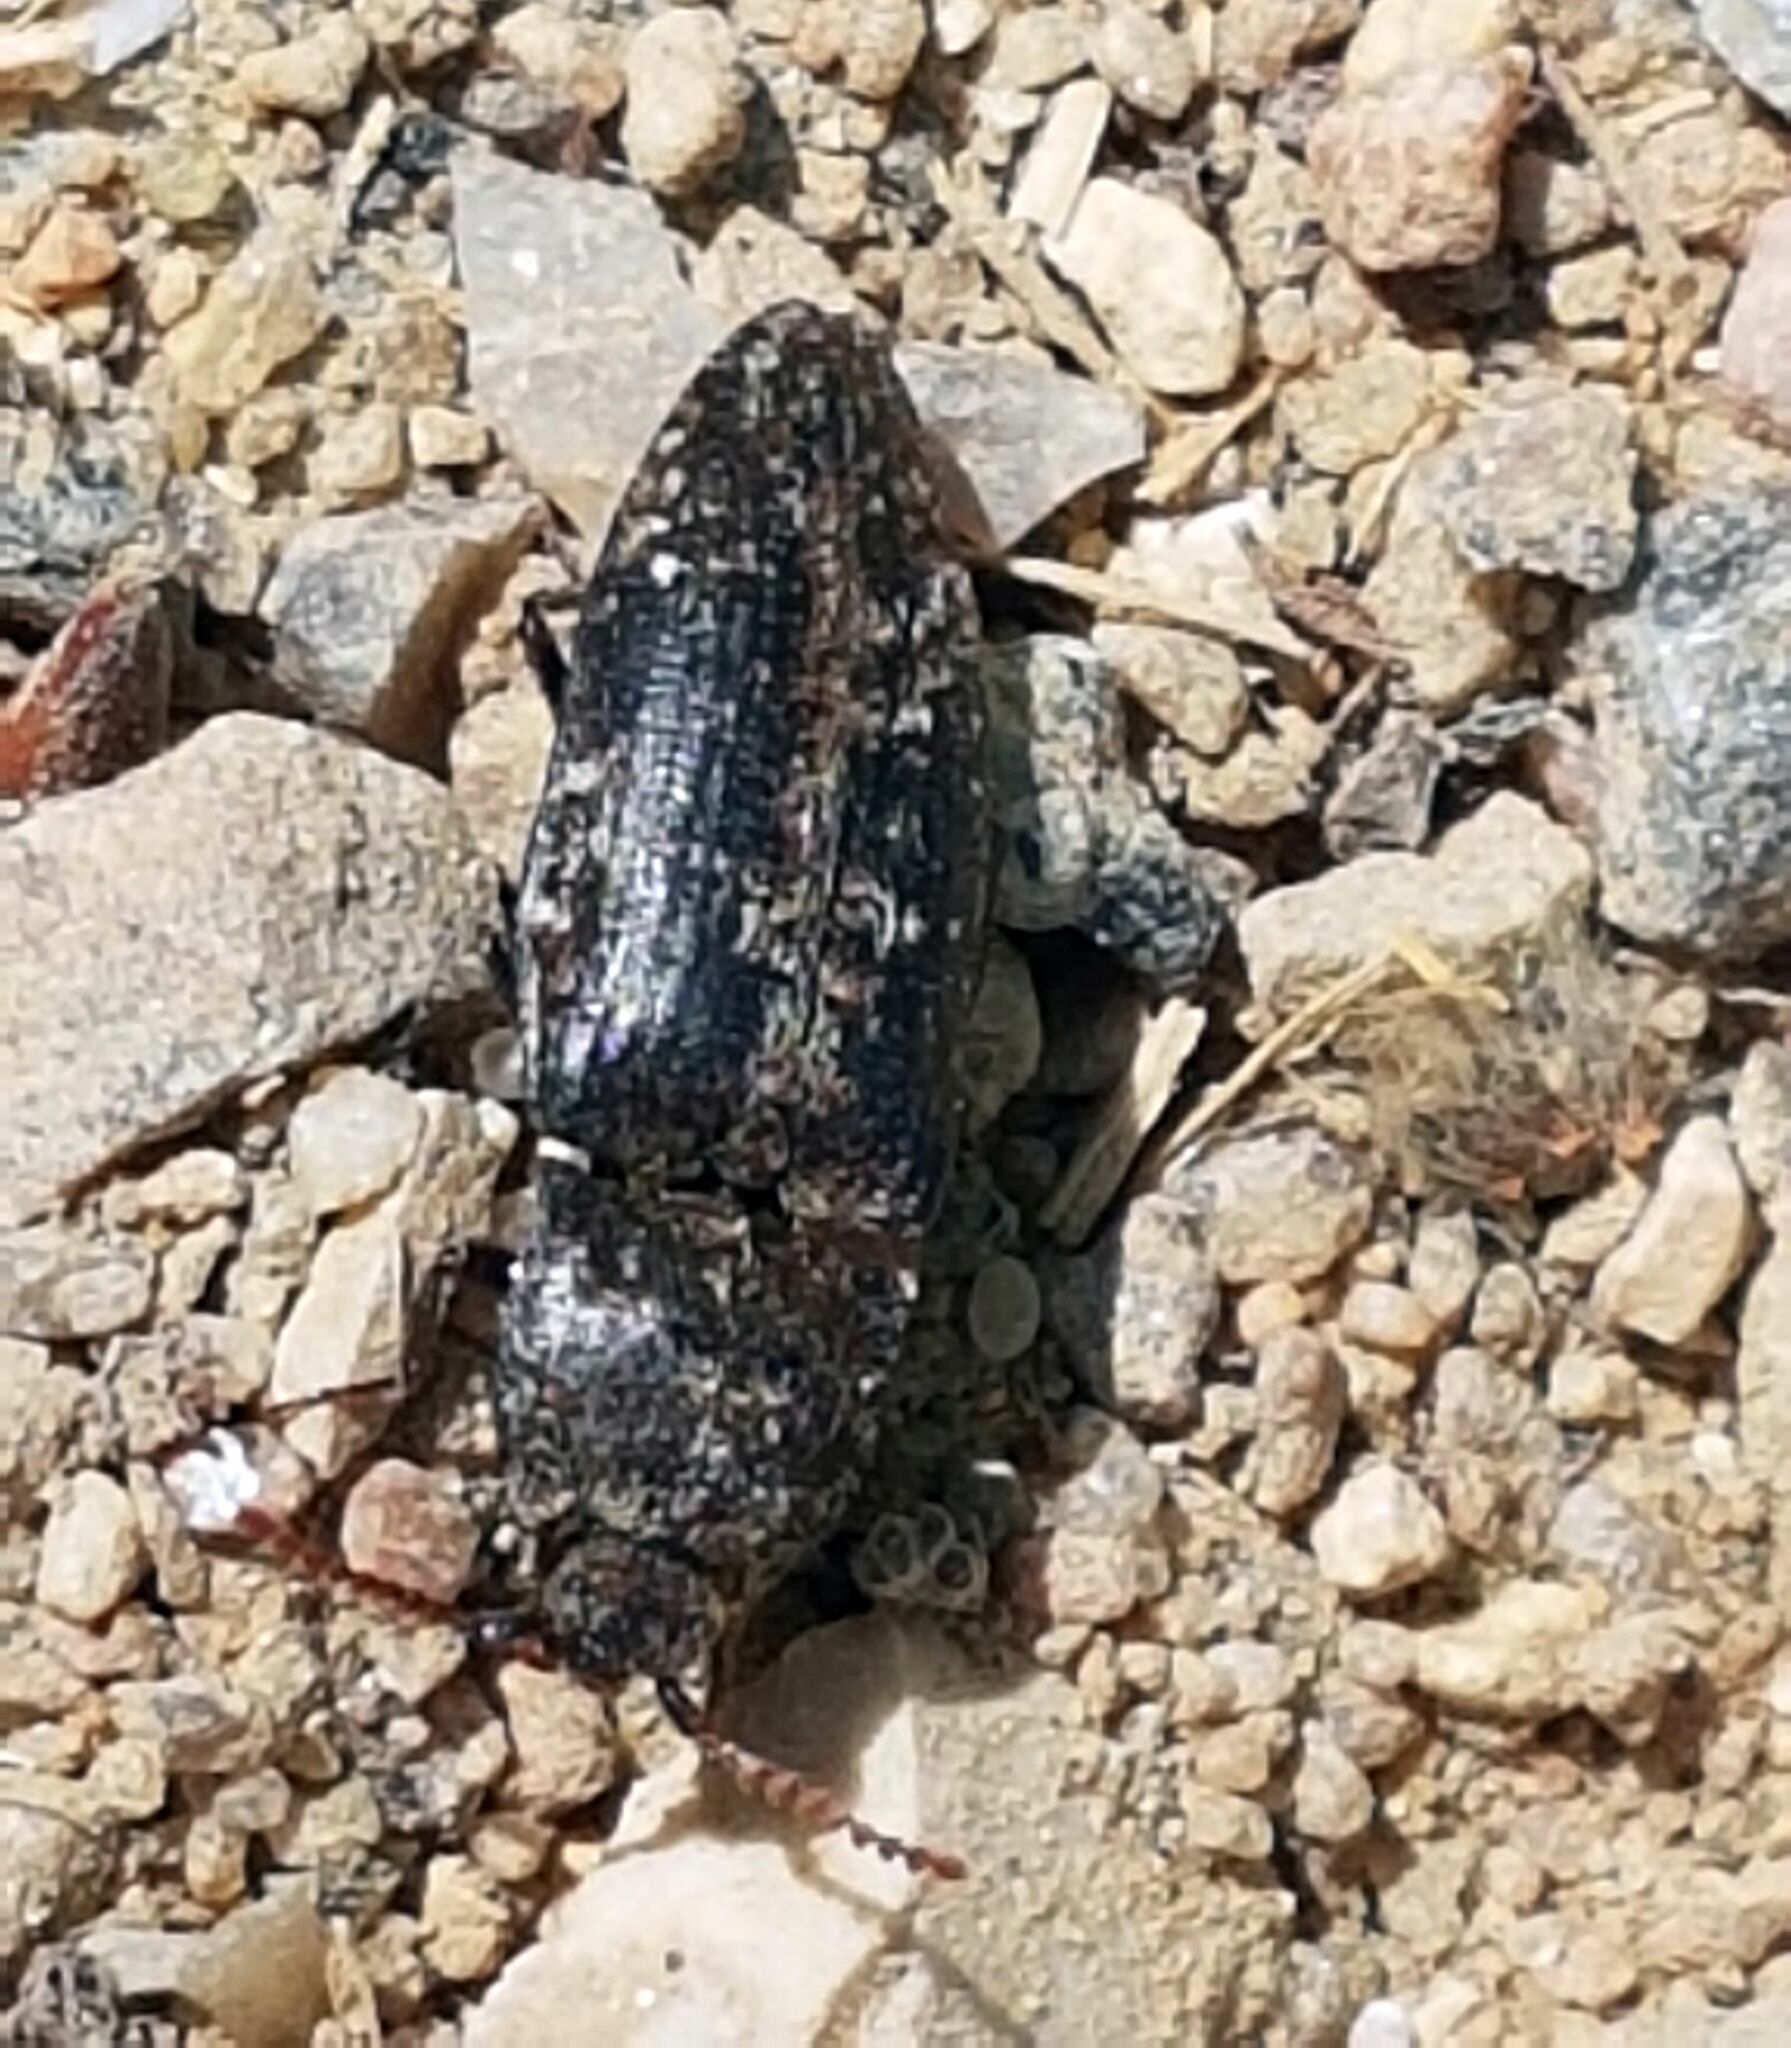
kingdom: Animalia
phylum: Arthropoda
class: Insecta
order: Coleoptera
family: Elateridae
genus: Agrypnus
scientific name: Agrypnus murinus
